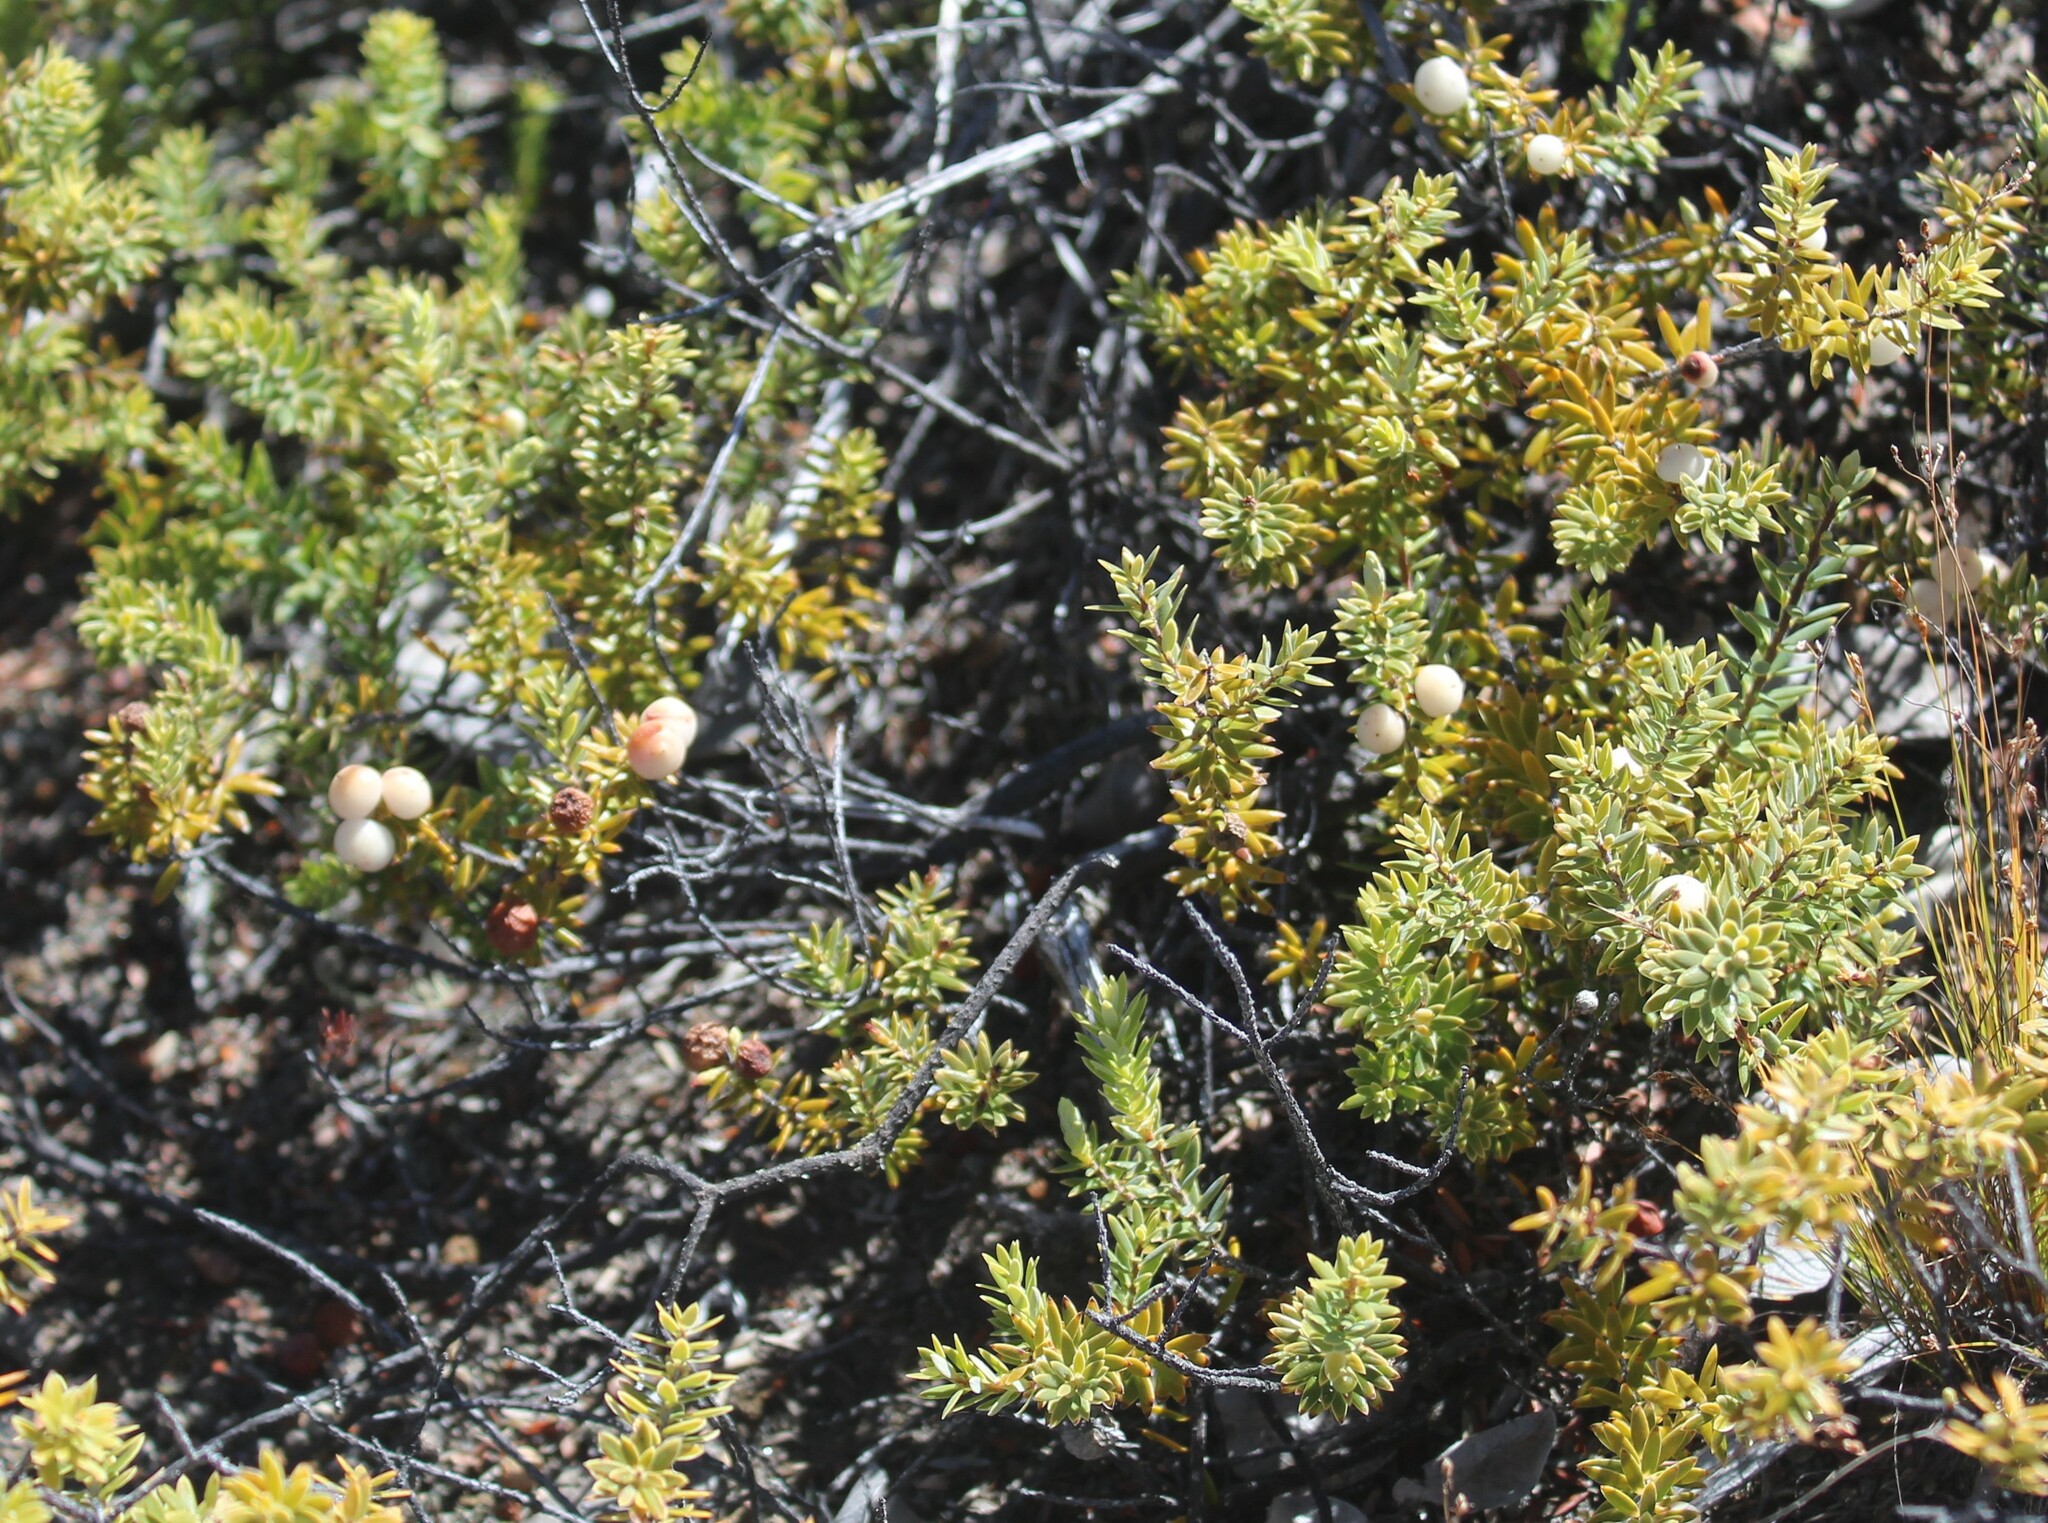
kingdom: Plantae
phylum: Tracheophyta
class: Magnoliopsida
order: Ericales
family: Ericaceae
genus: Leptecophylla
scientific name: Leptecophylla tameiameiae
